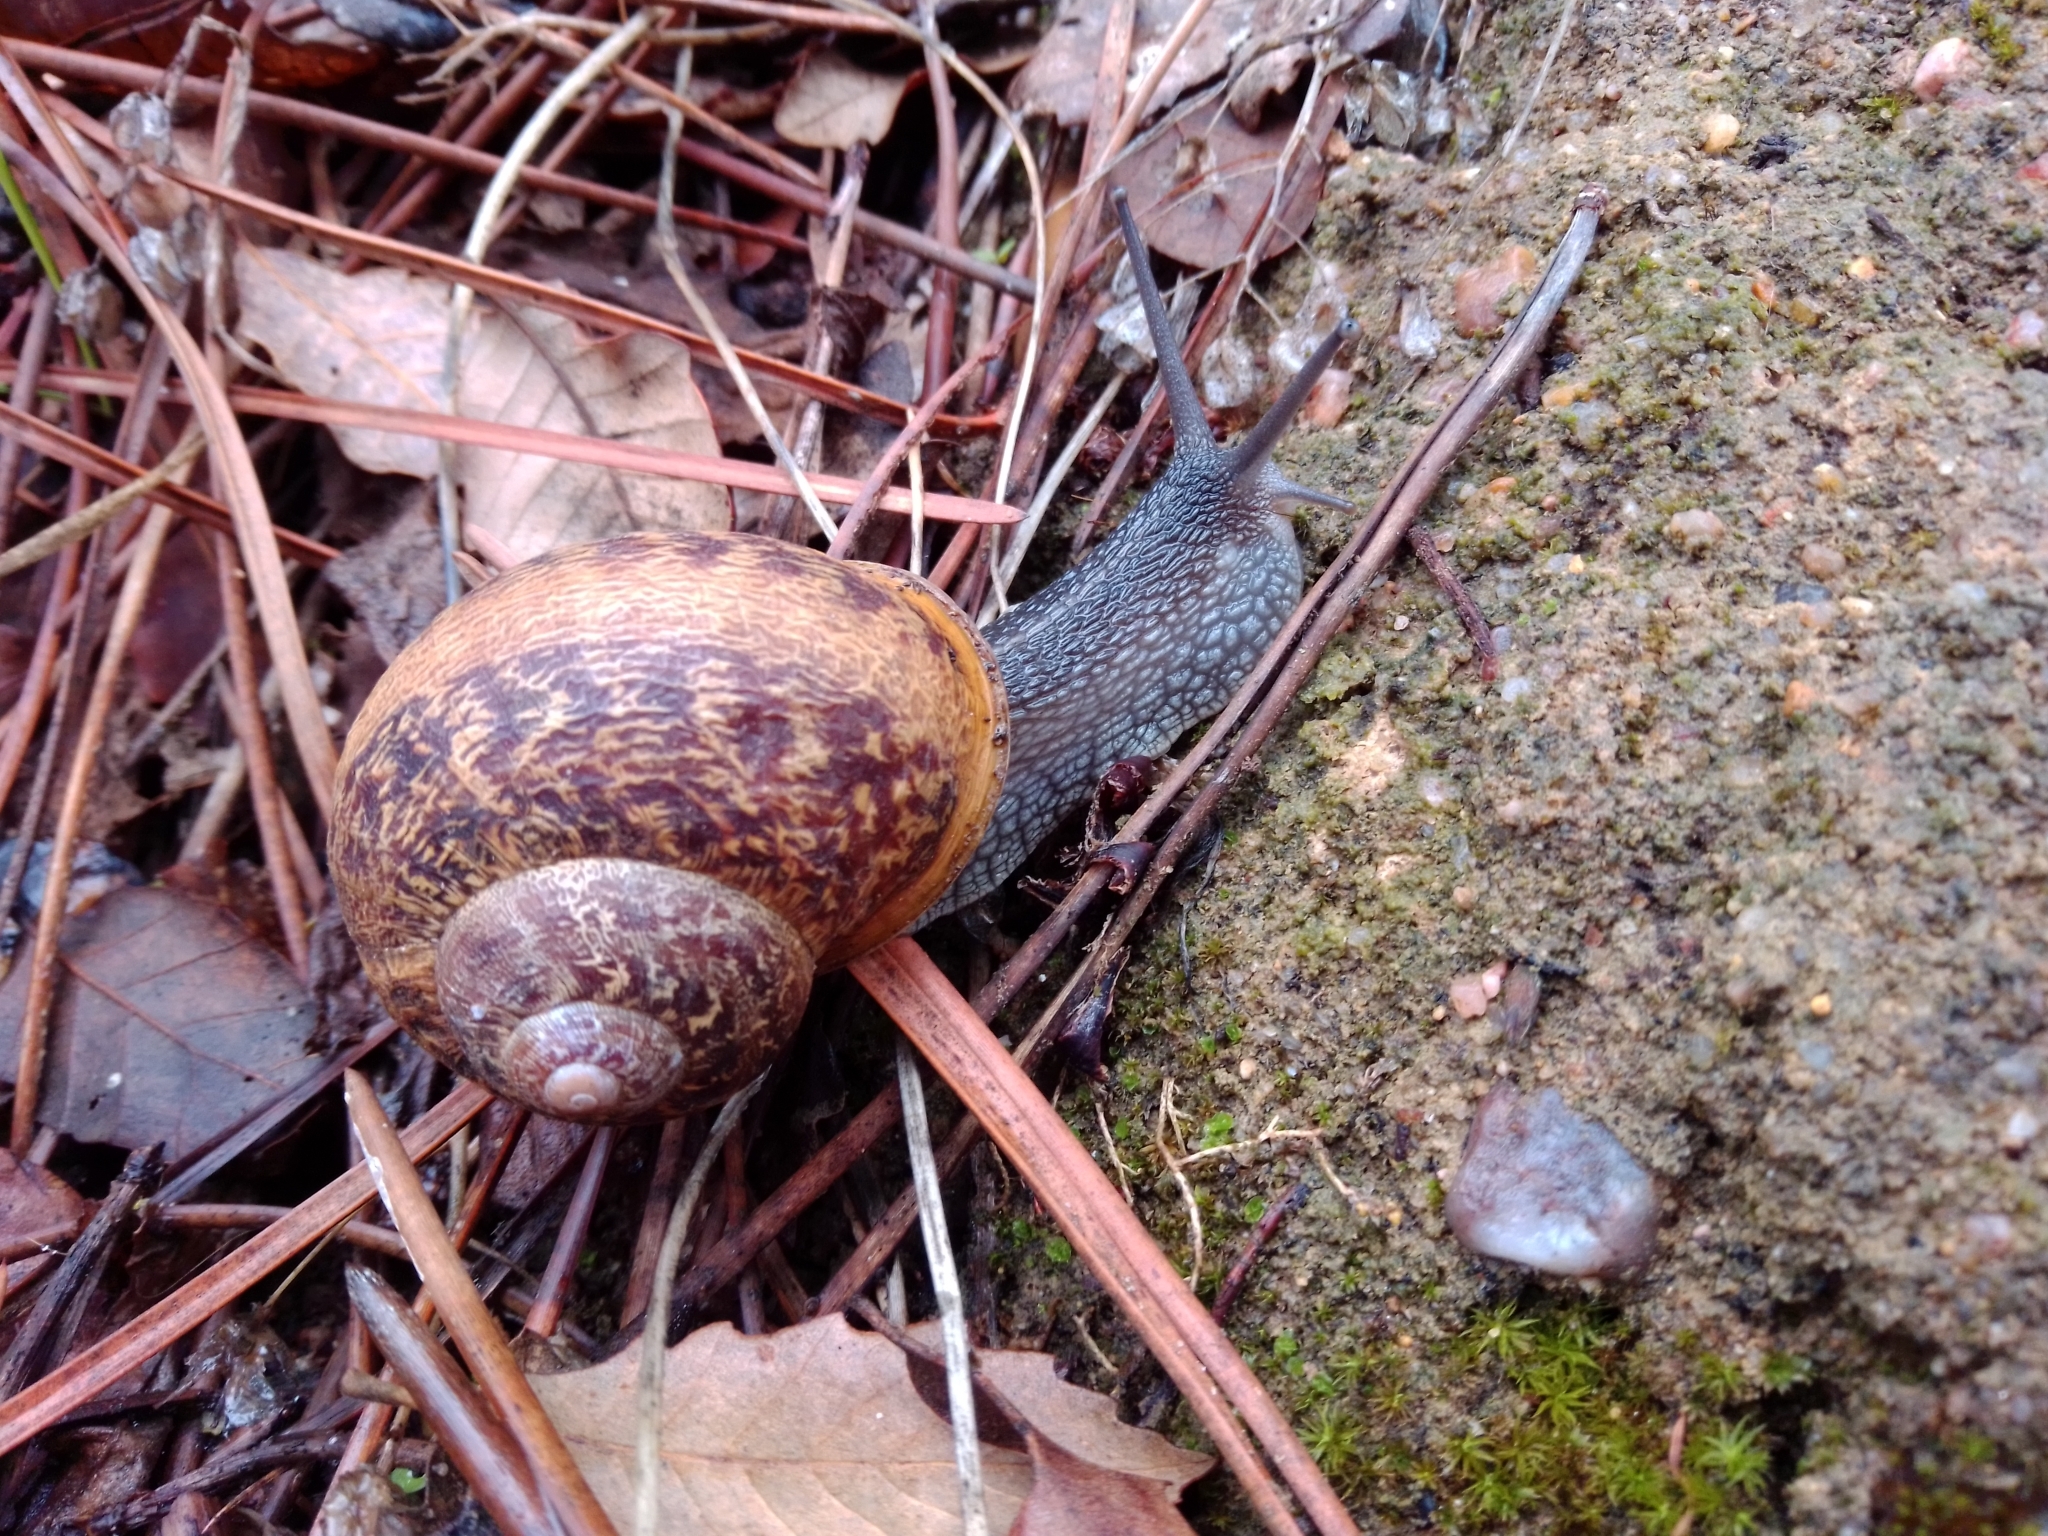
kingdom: Animalia
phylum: Mollusca
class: Gastropoda
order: Stylommatophora
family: Helicidae
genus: Cornu
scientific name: Cornu aspersum
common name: Brown garden snail
